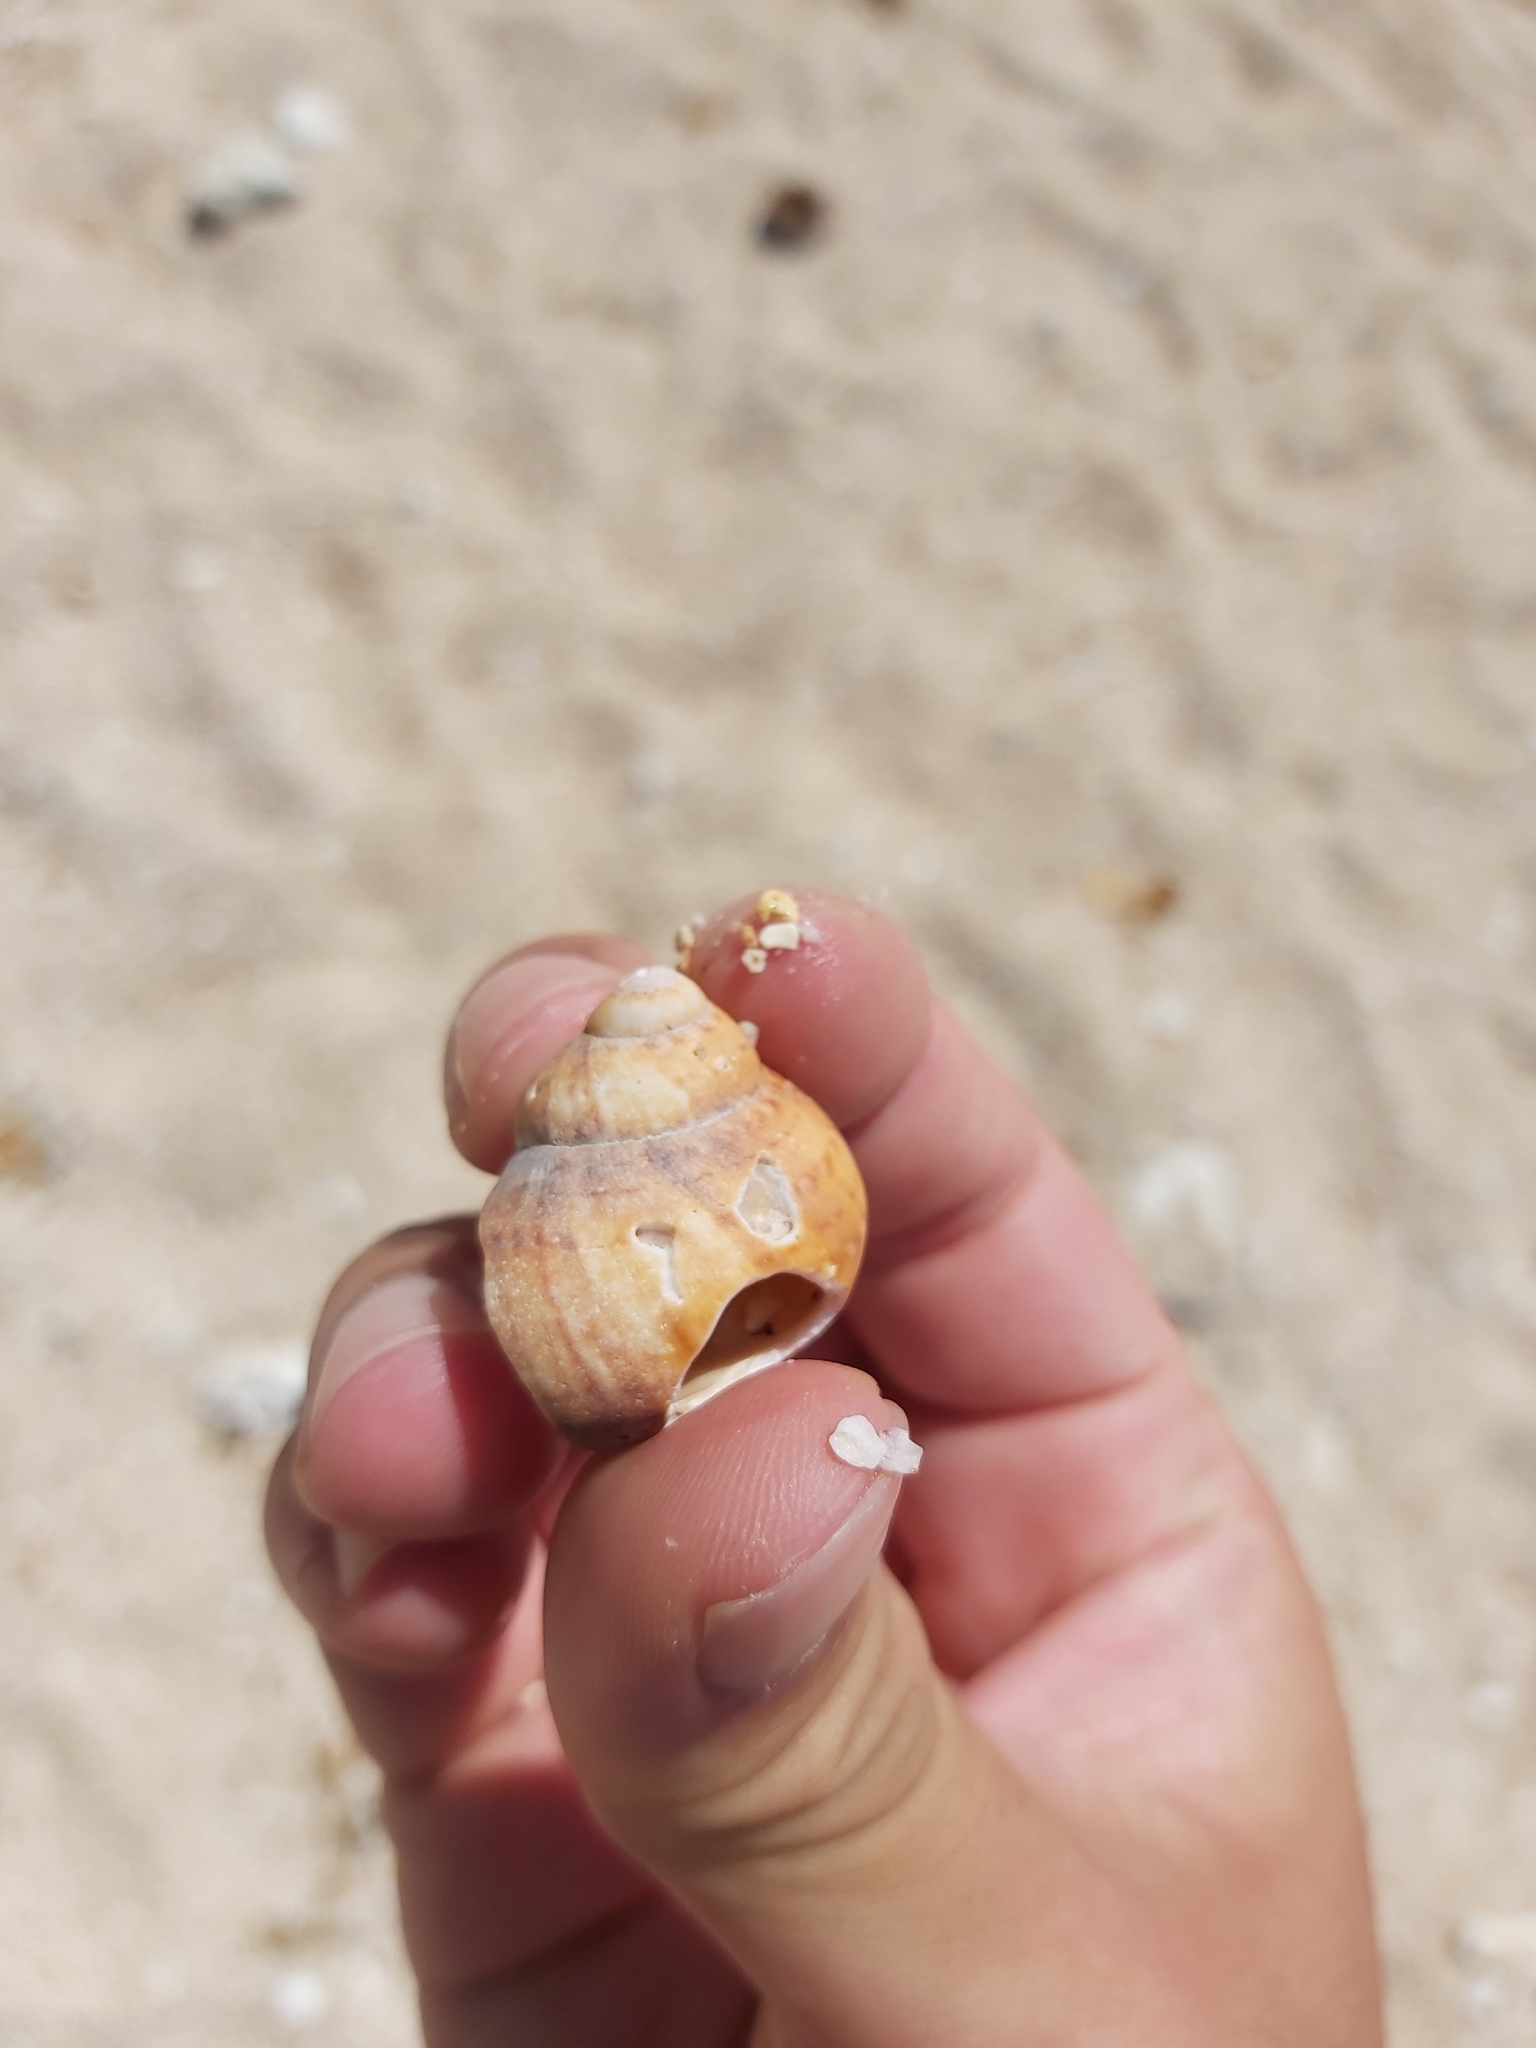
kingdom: Animalia
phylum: Mollusca
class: Gastropoda
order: Trochida
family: Turbinidae
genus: Turbo
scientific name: Turbo walteri
